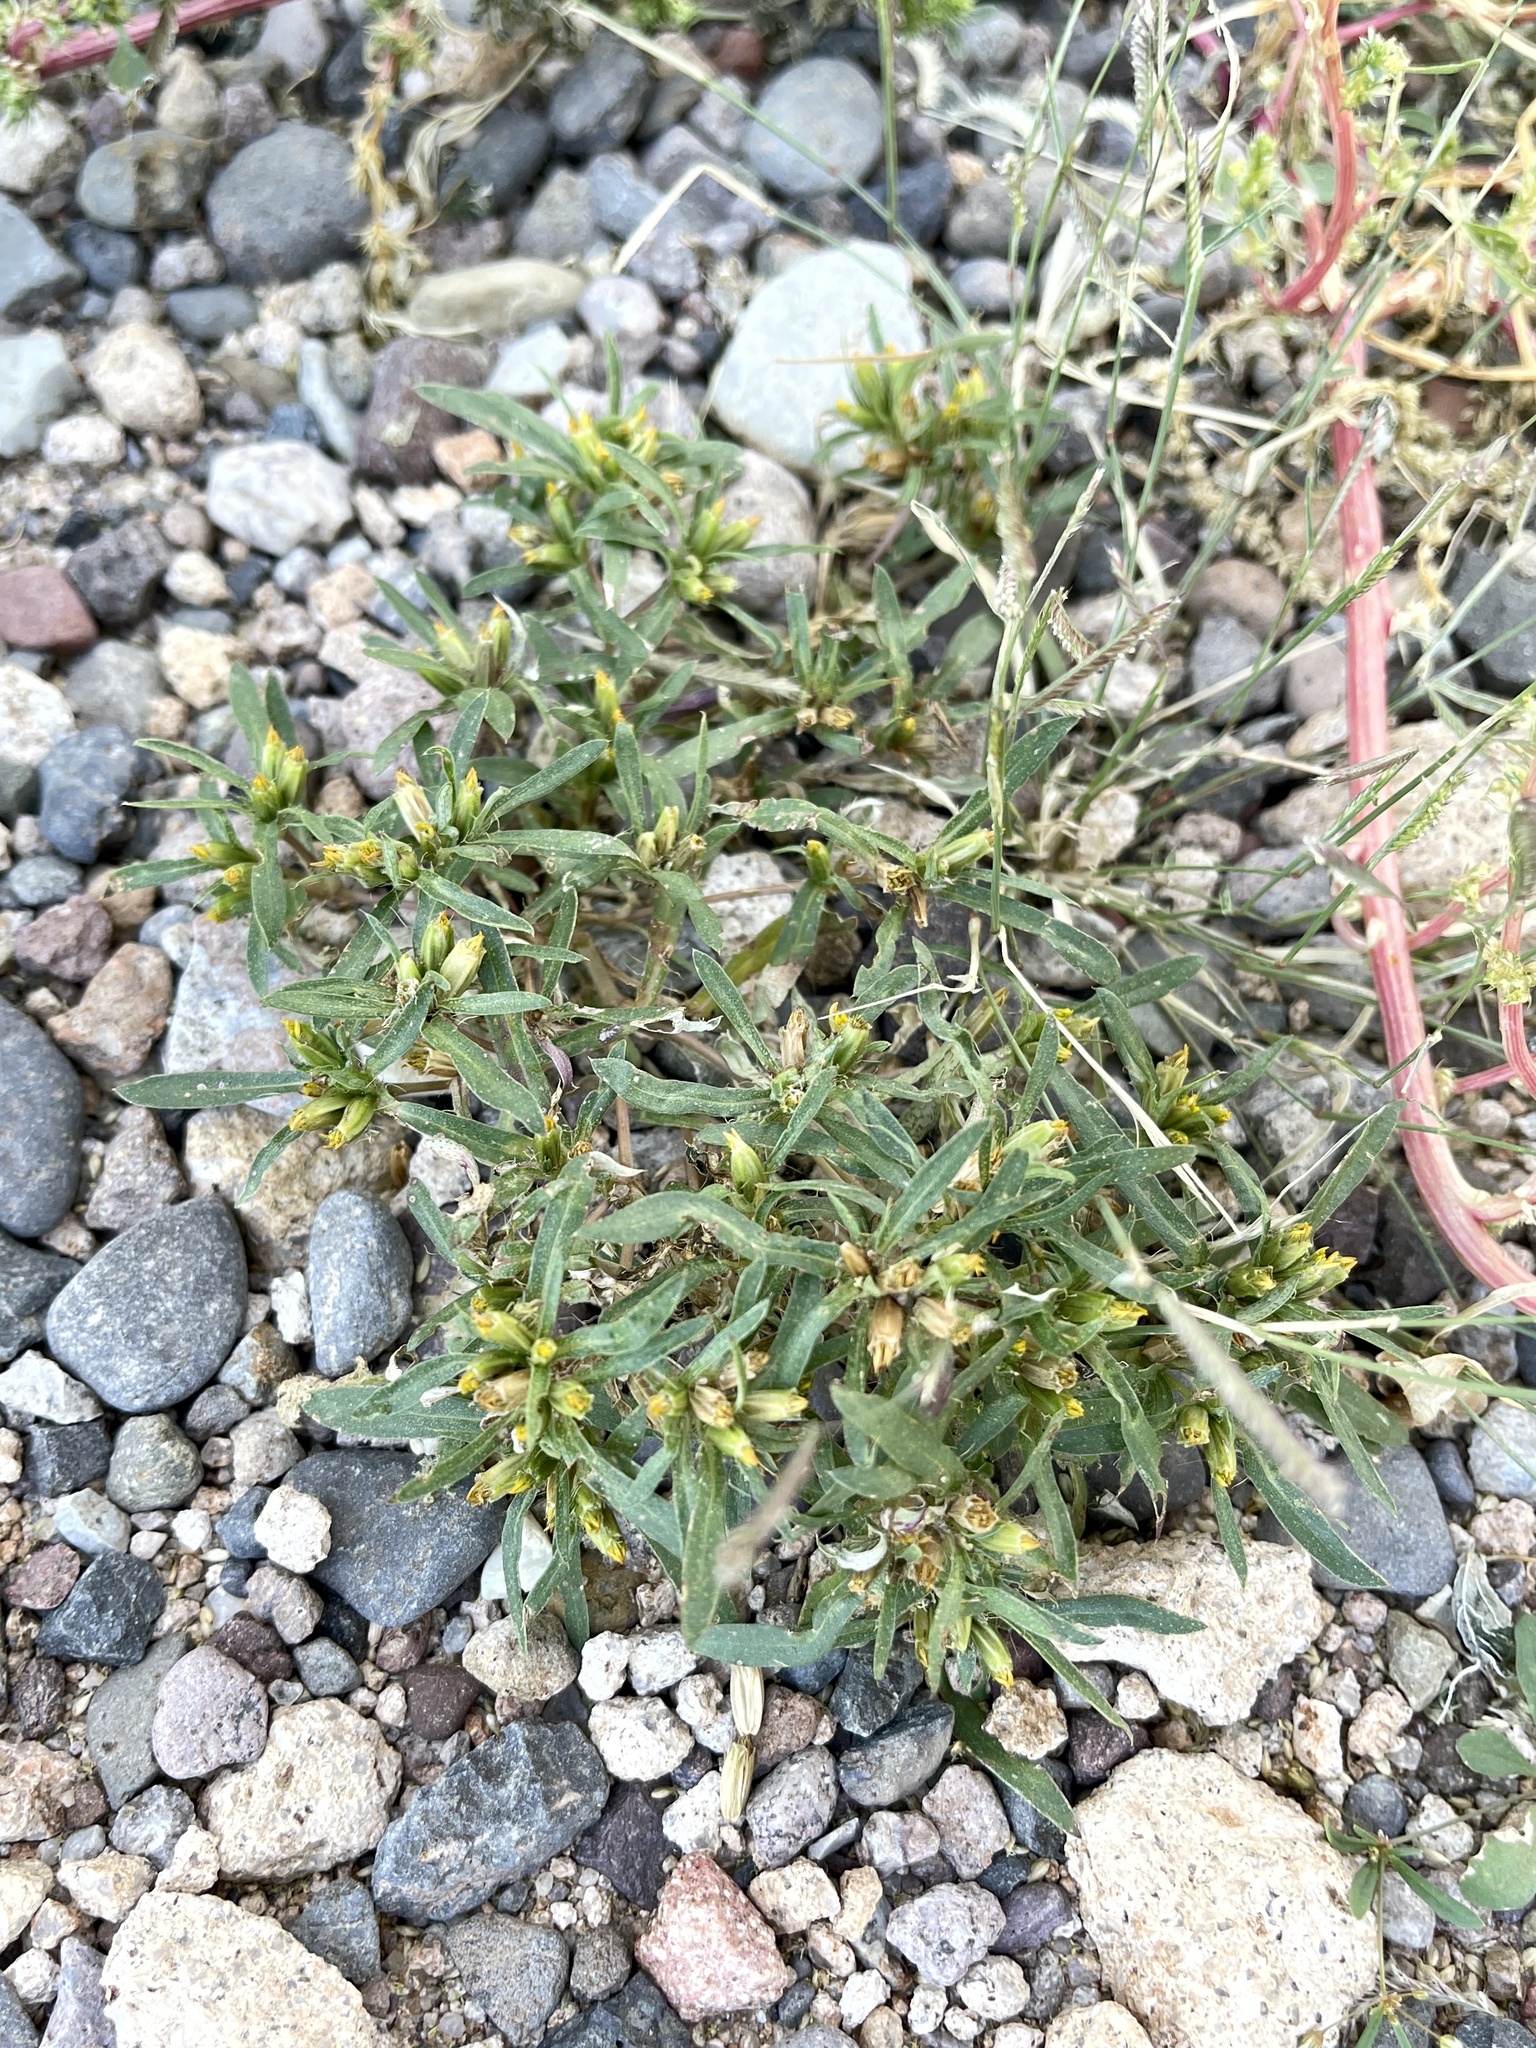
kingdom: Plantae
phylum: Tracheophyta
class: Magnoliopsida
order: Asterales
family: Asteraceae
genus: Pectis
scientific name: Pectis prostrata
